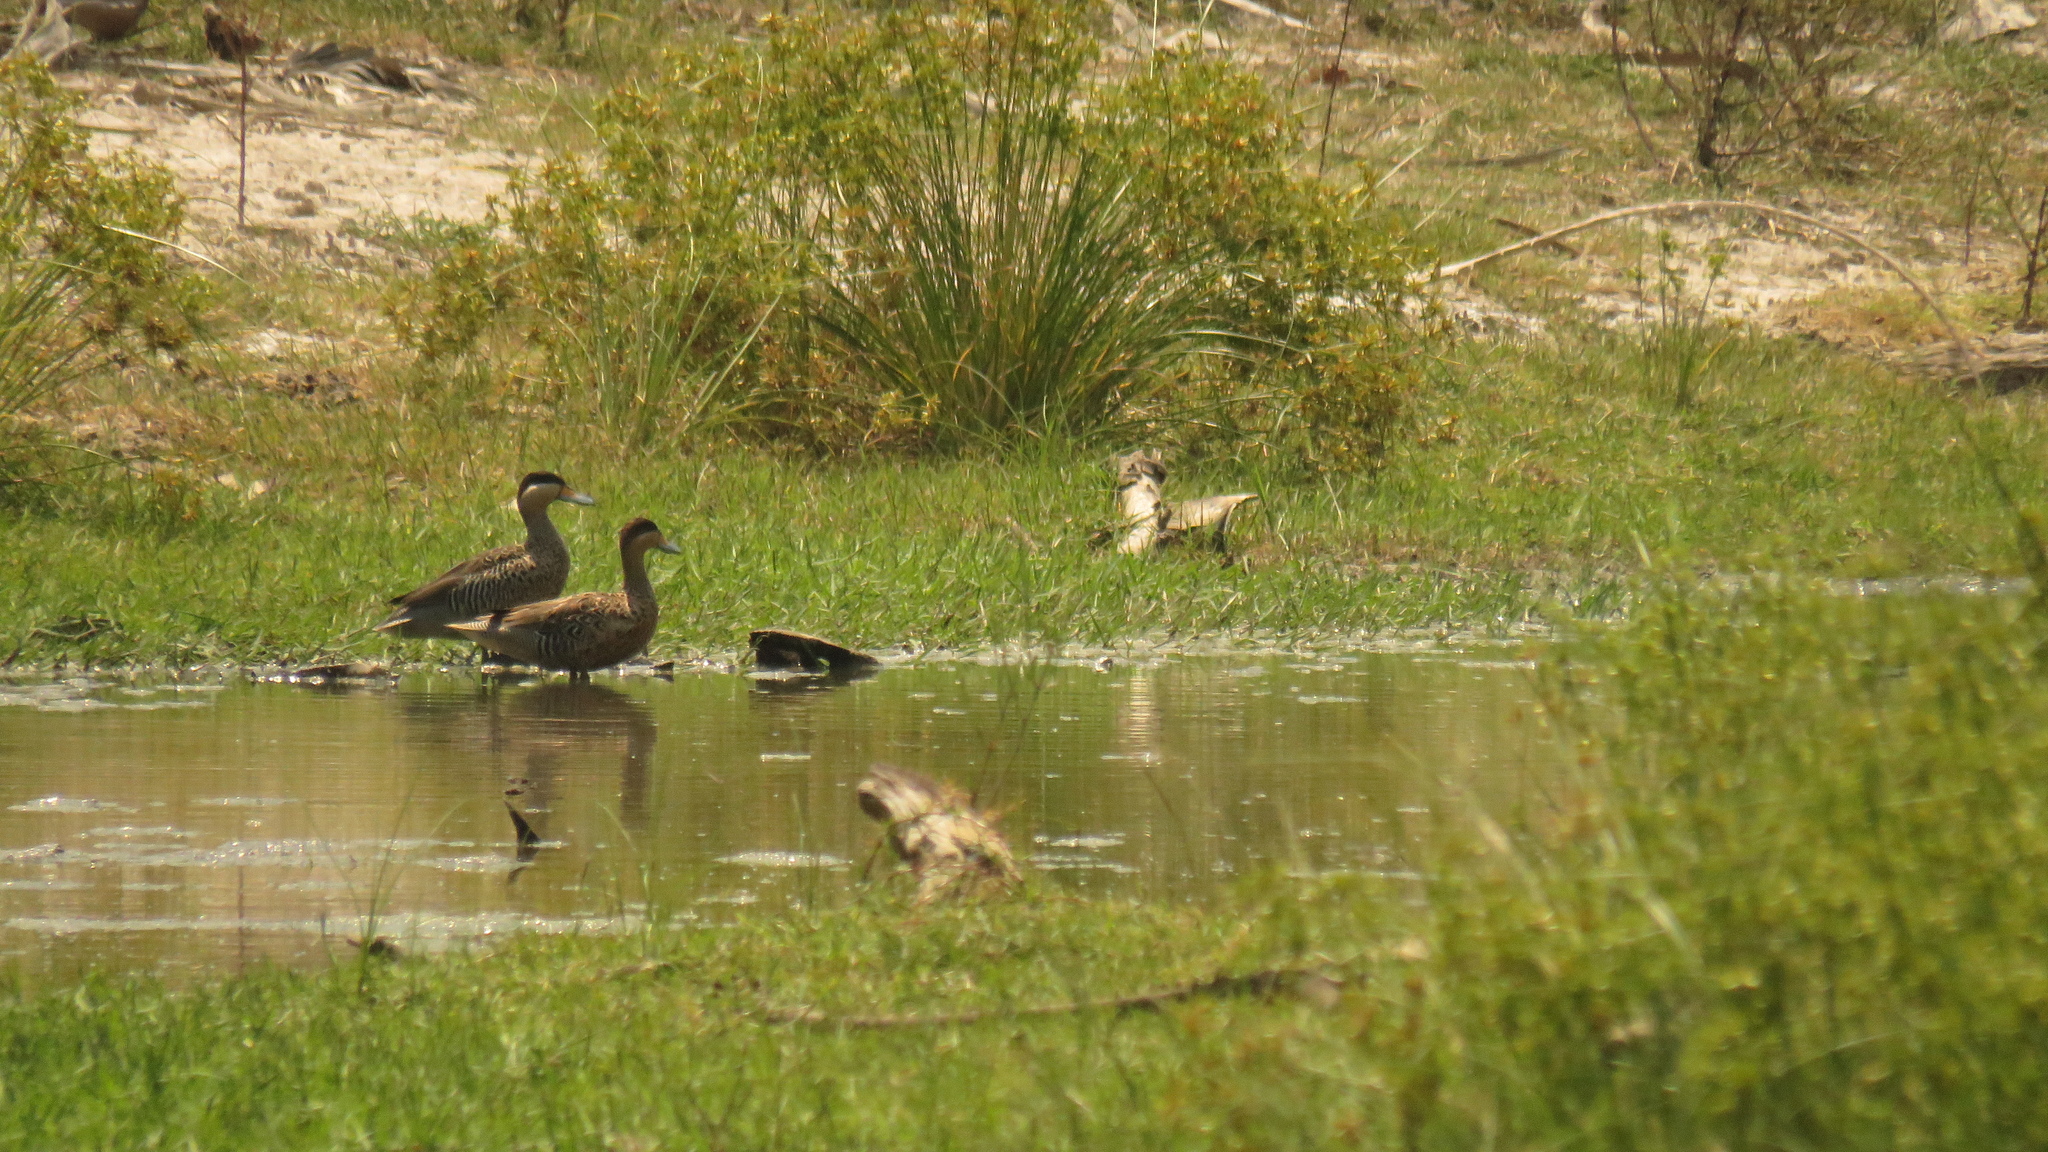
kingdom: Animalia
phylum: Chordata
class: Aves
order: Anseriformes
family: Anatidae
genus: Spatula
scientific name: Spatula versicolor
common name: Silver teal
